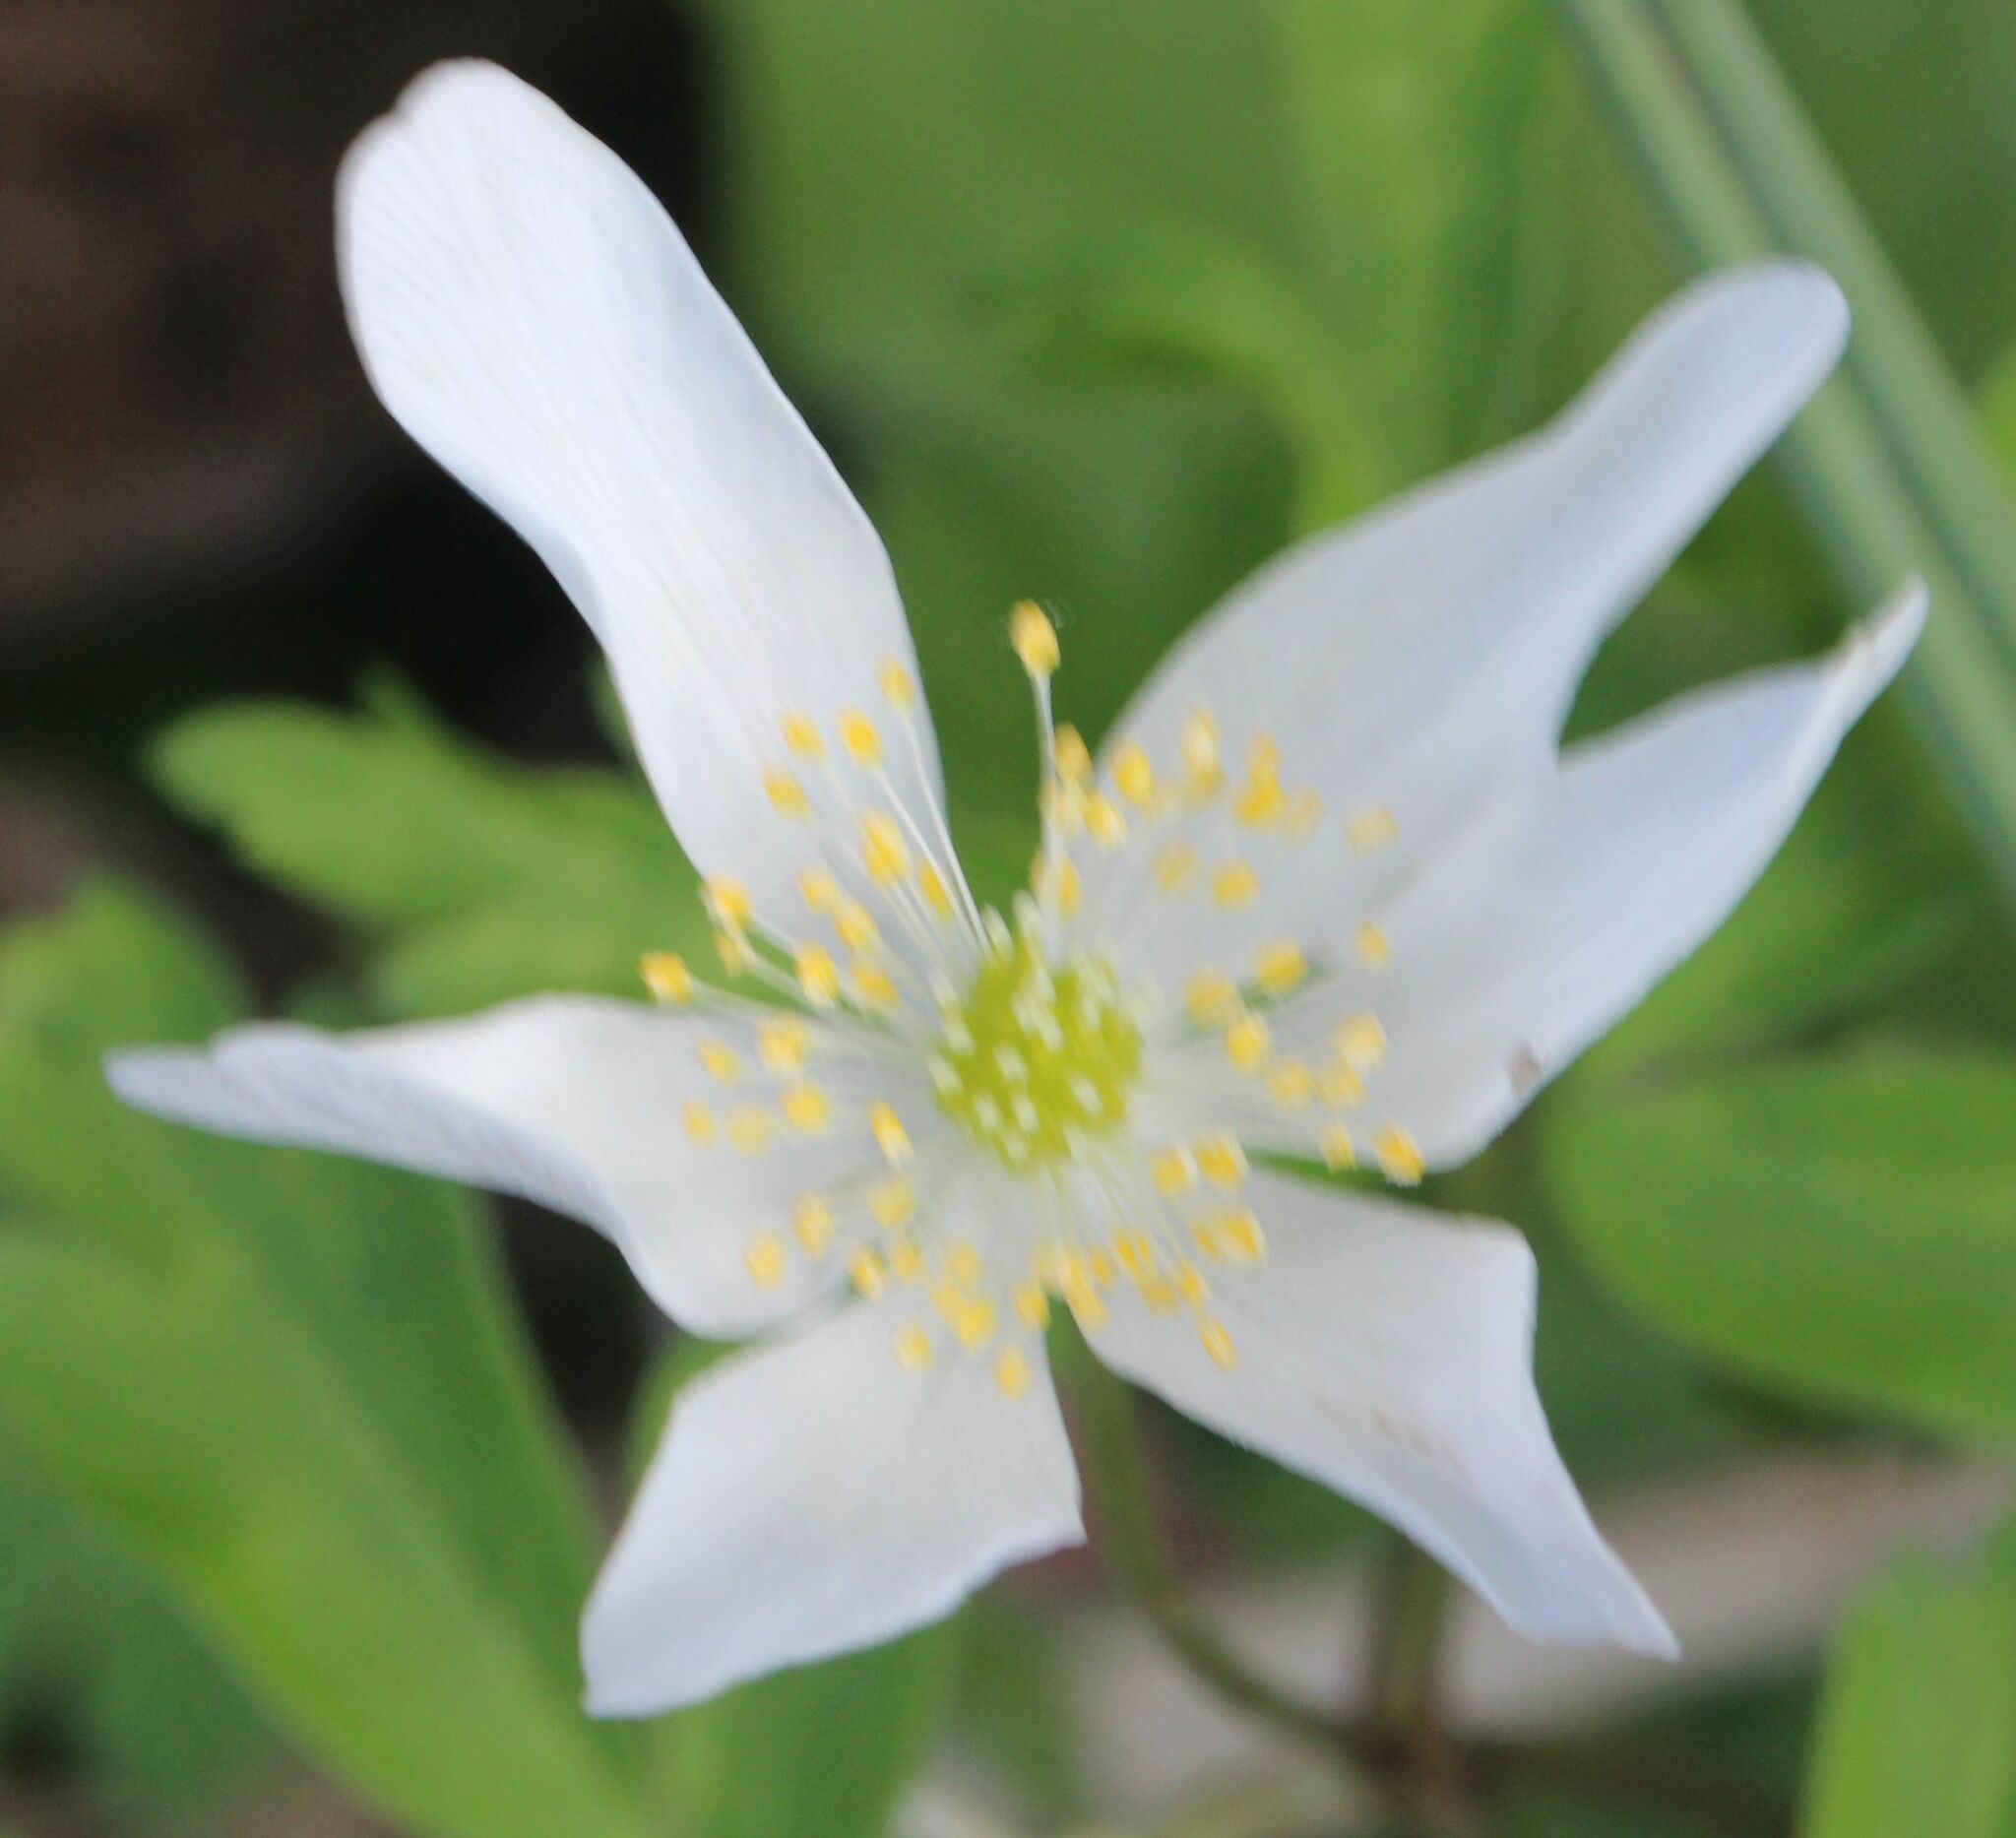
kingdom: Plantae
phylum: Tracheophyta
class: Magnoliopsida
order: Ranunculales
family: Ranunculaceae
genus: Anemone
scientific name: Anemone nemorosa
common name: Wood anemone
